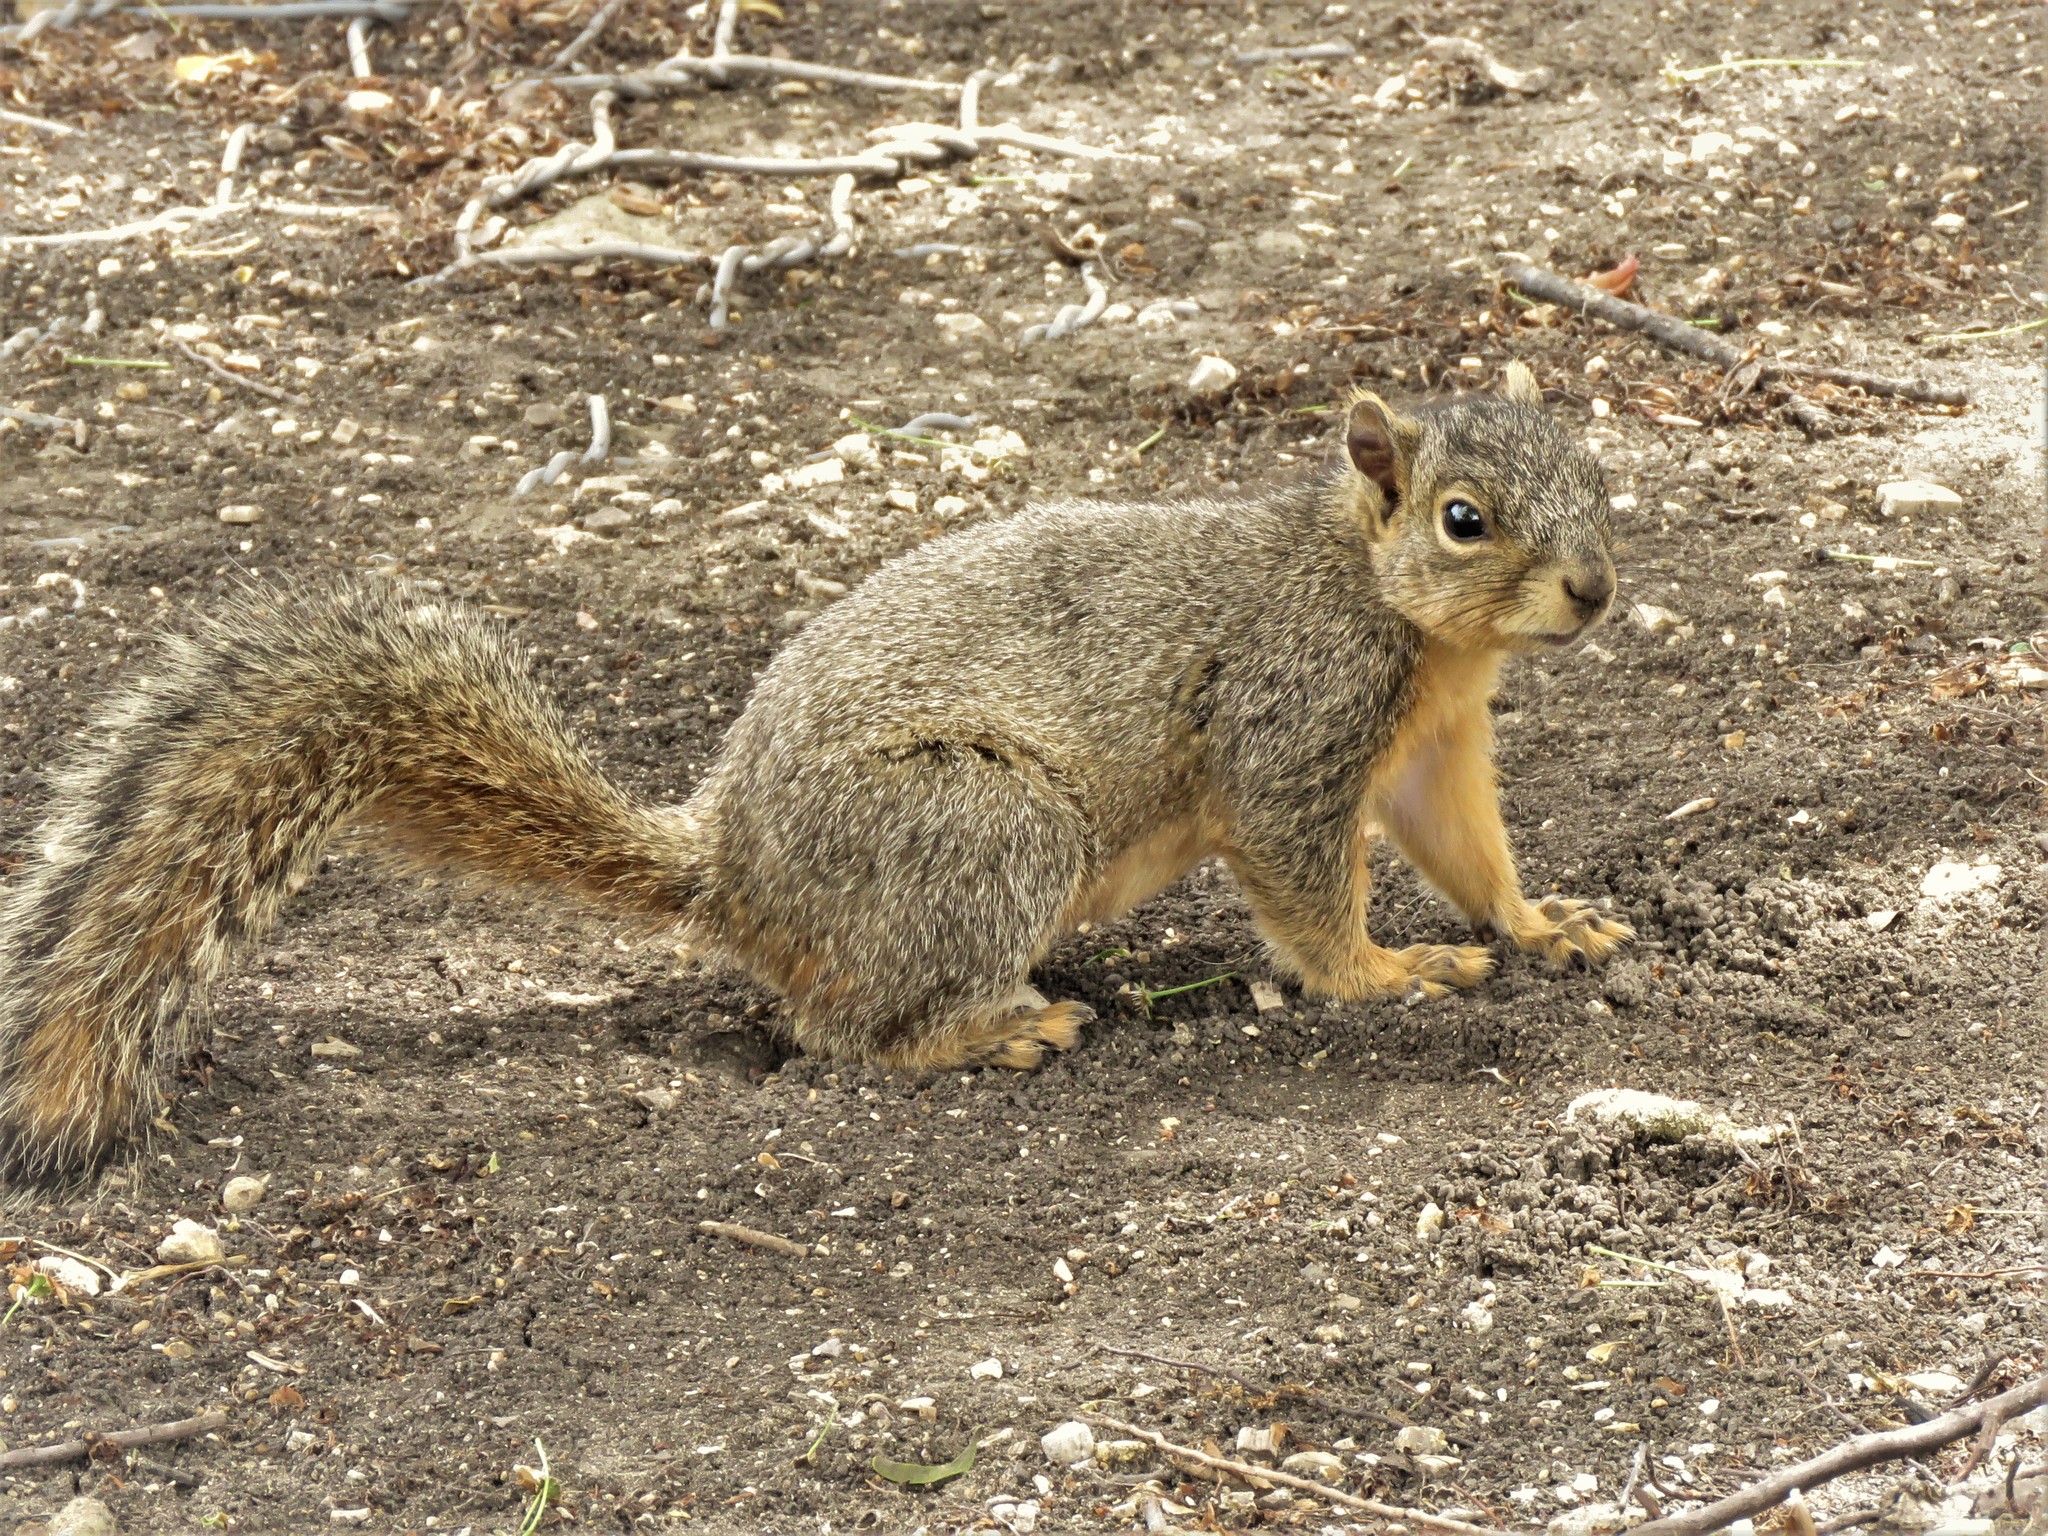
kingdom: Animalia
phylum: Chordata
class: Mammalia
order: Rodentia
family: Sciuridae
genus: Sciurus
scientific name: Sciurus niger
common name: Fox squirrel
